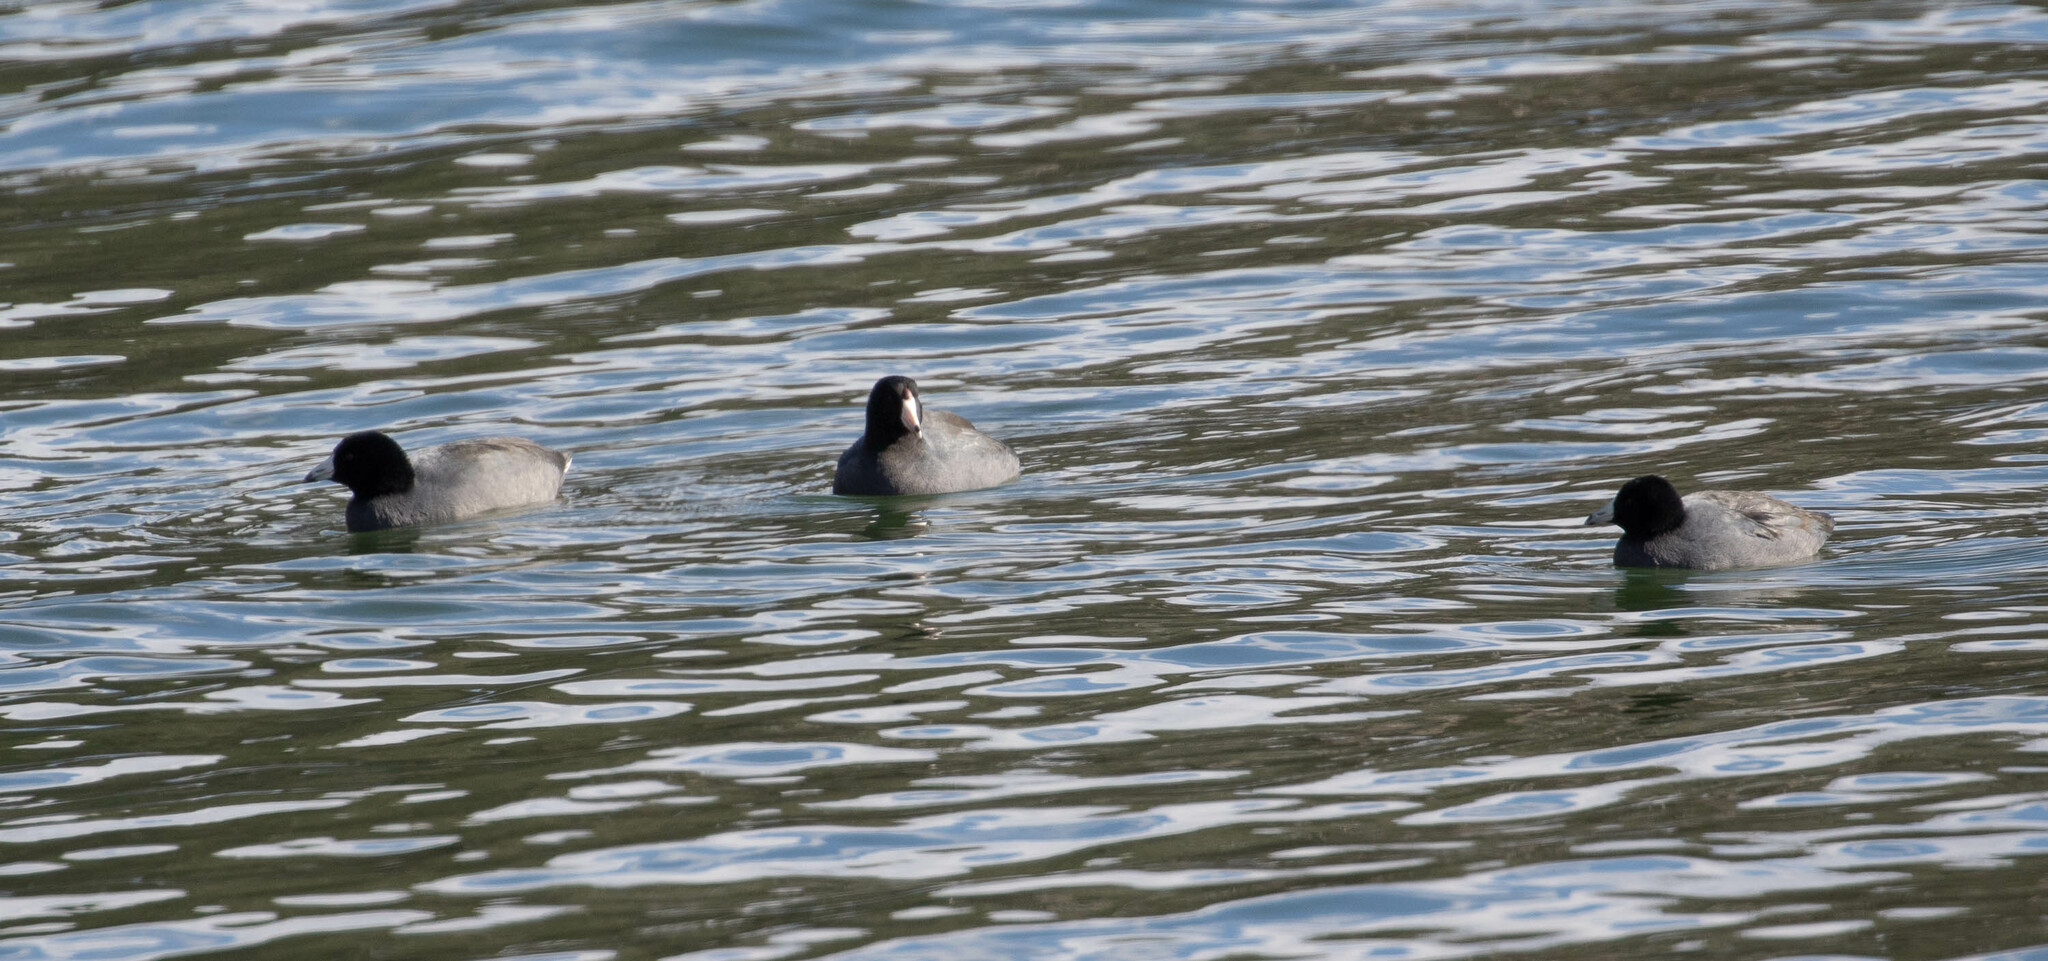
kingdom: Animalia
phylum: Chordata
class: Aves
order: Gruiformes
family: Rallidae
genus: Fulica
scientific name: Fulica americana
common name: American coot
